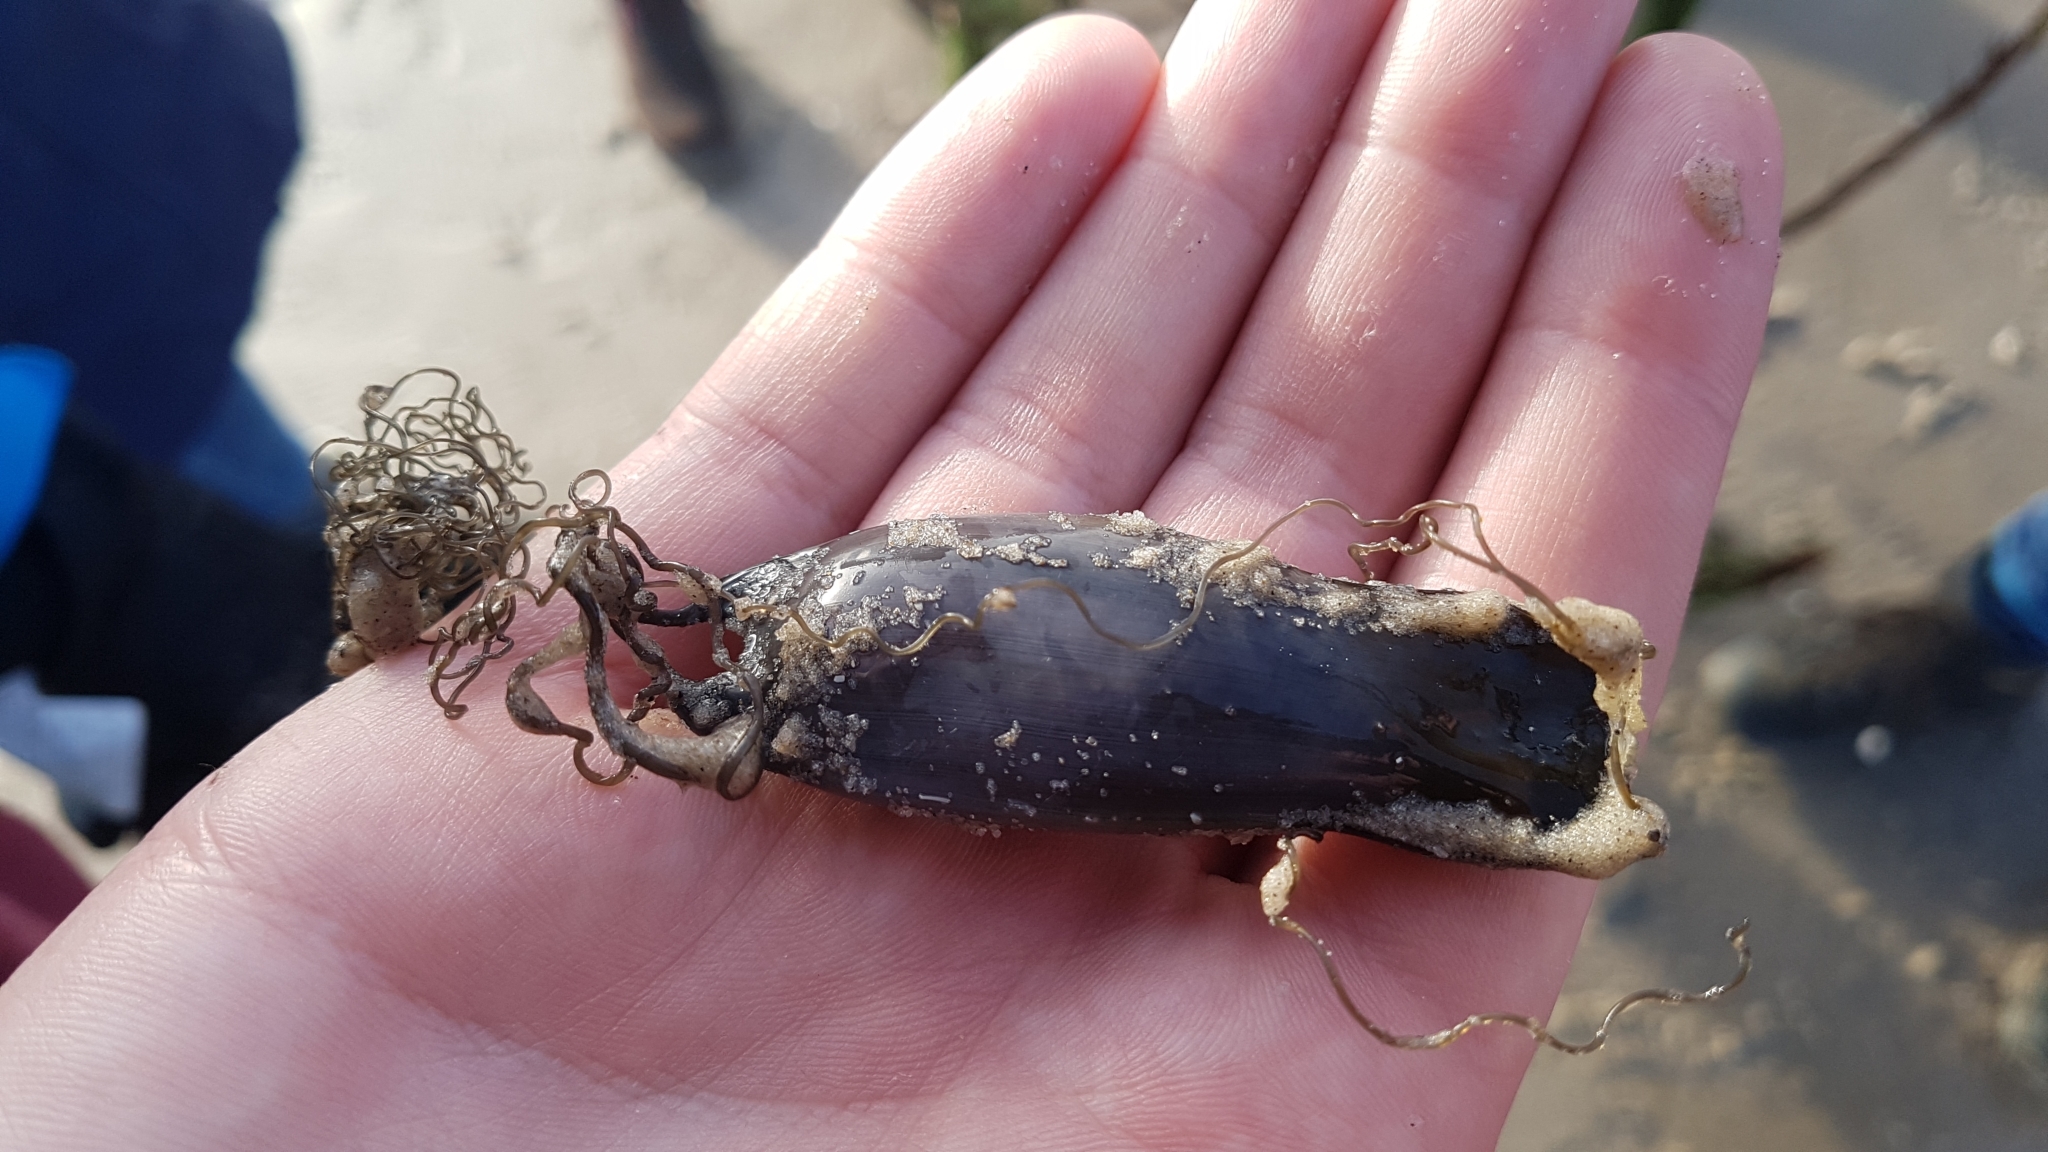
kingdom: Animalia
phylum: Chordata
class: Elasmobranchii
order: Carcharhiniformes
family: Scyliorhinidae
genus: Scyliorhinus
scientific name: Scyliorhinus canicula
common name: Lesser spotted dogfish
